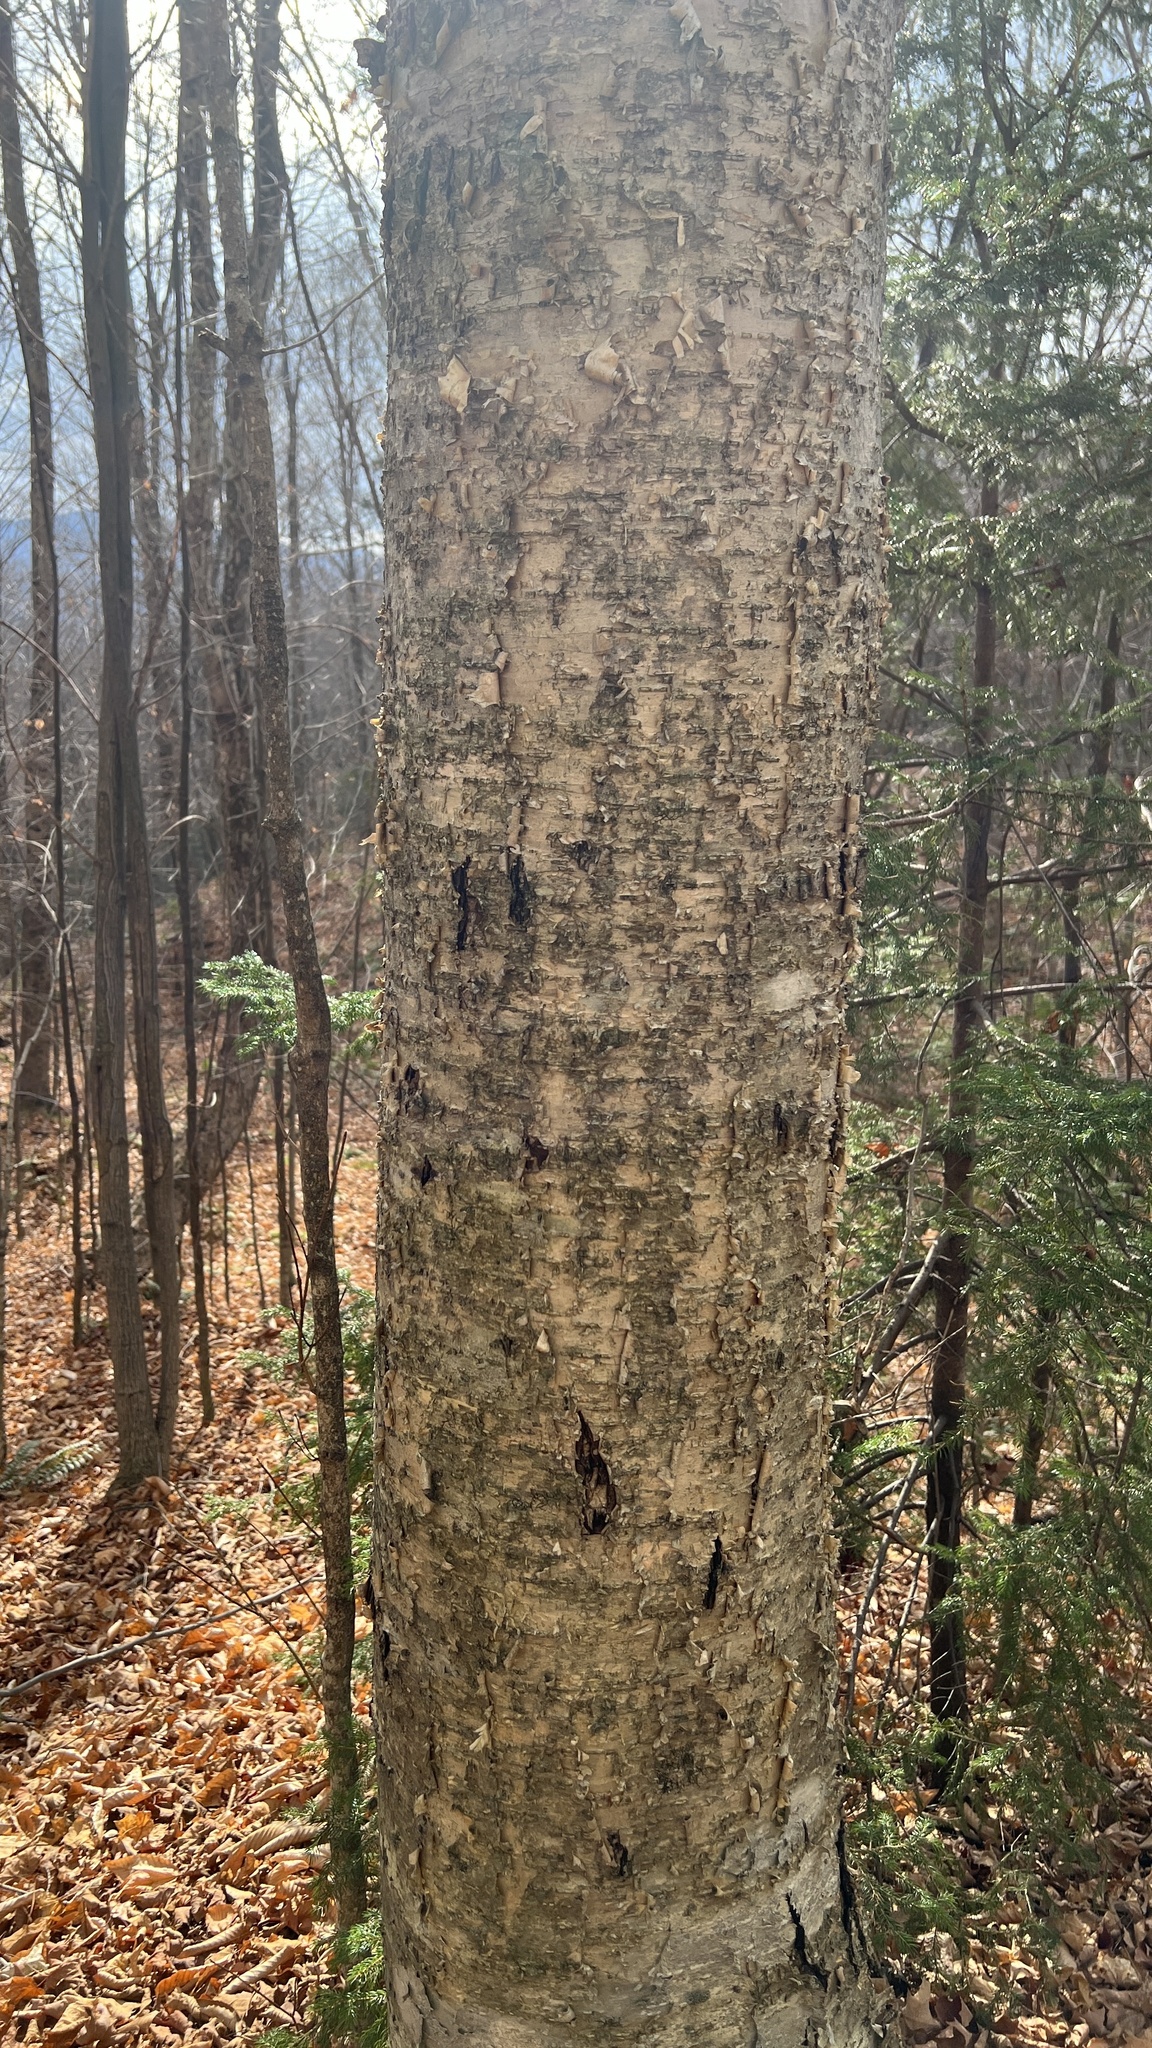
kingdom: Plantae
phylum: Tracheophyta
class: Magnoliopsida
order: Fagales
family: Betulaceae
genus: Betula
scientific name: Betula alleghaniensis
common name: Yellow birch
